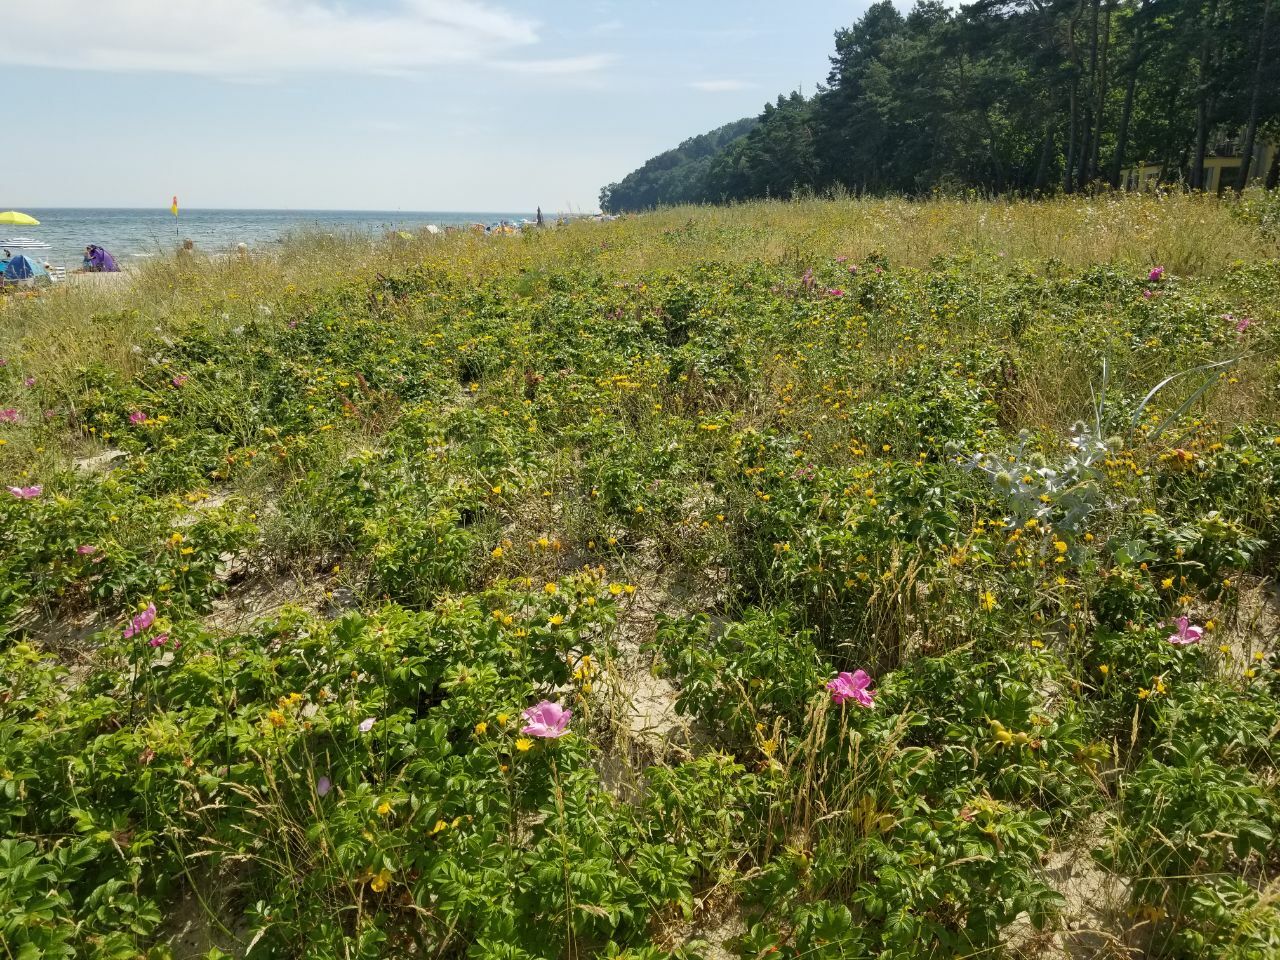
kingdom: Plantae
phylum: Tracheophyta
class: Magnoliopsida
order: Rosales
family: Rosaceae
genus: Rosa
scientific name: Rosa rugosa
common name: Japanese rose
